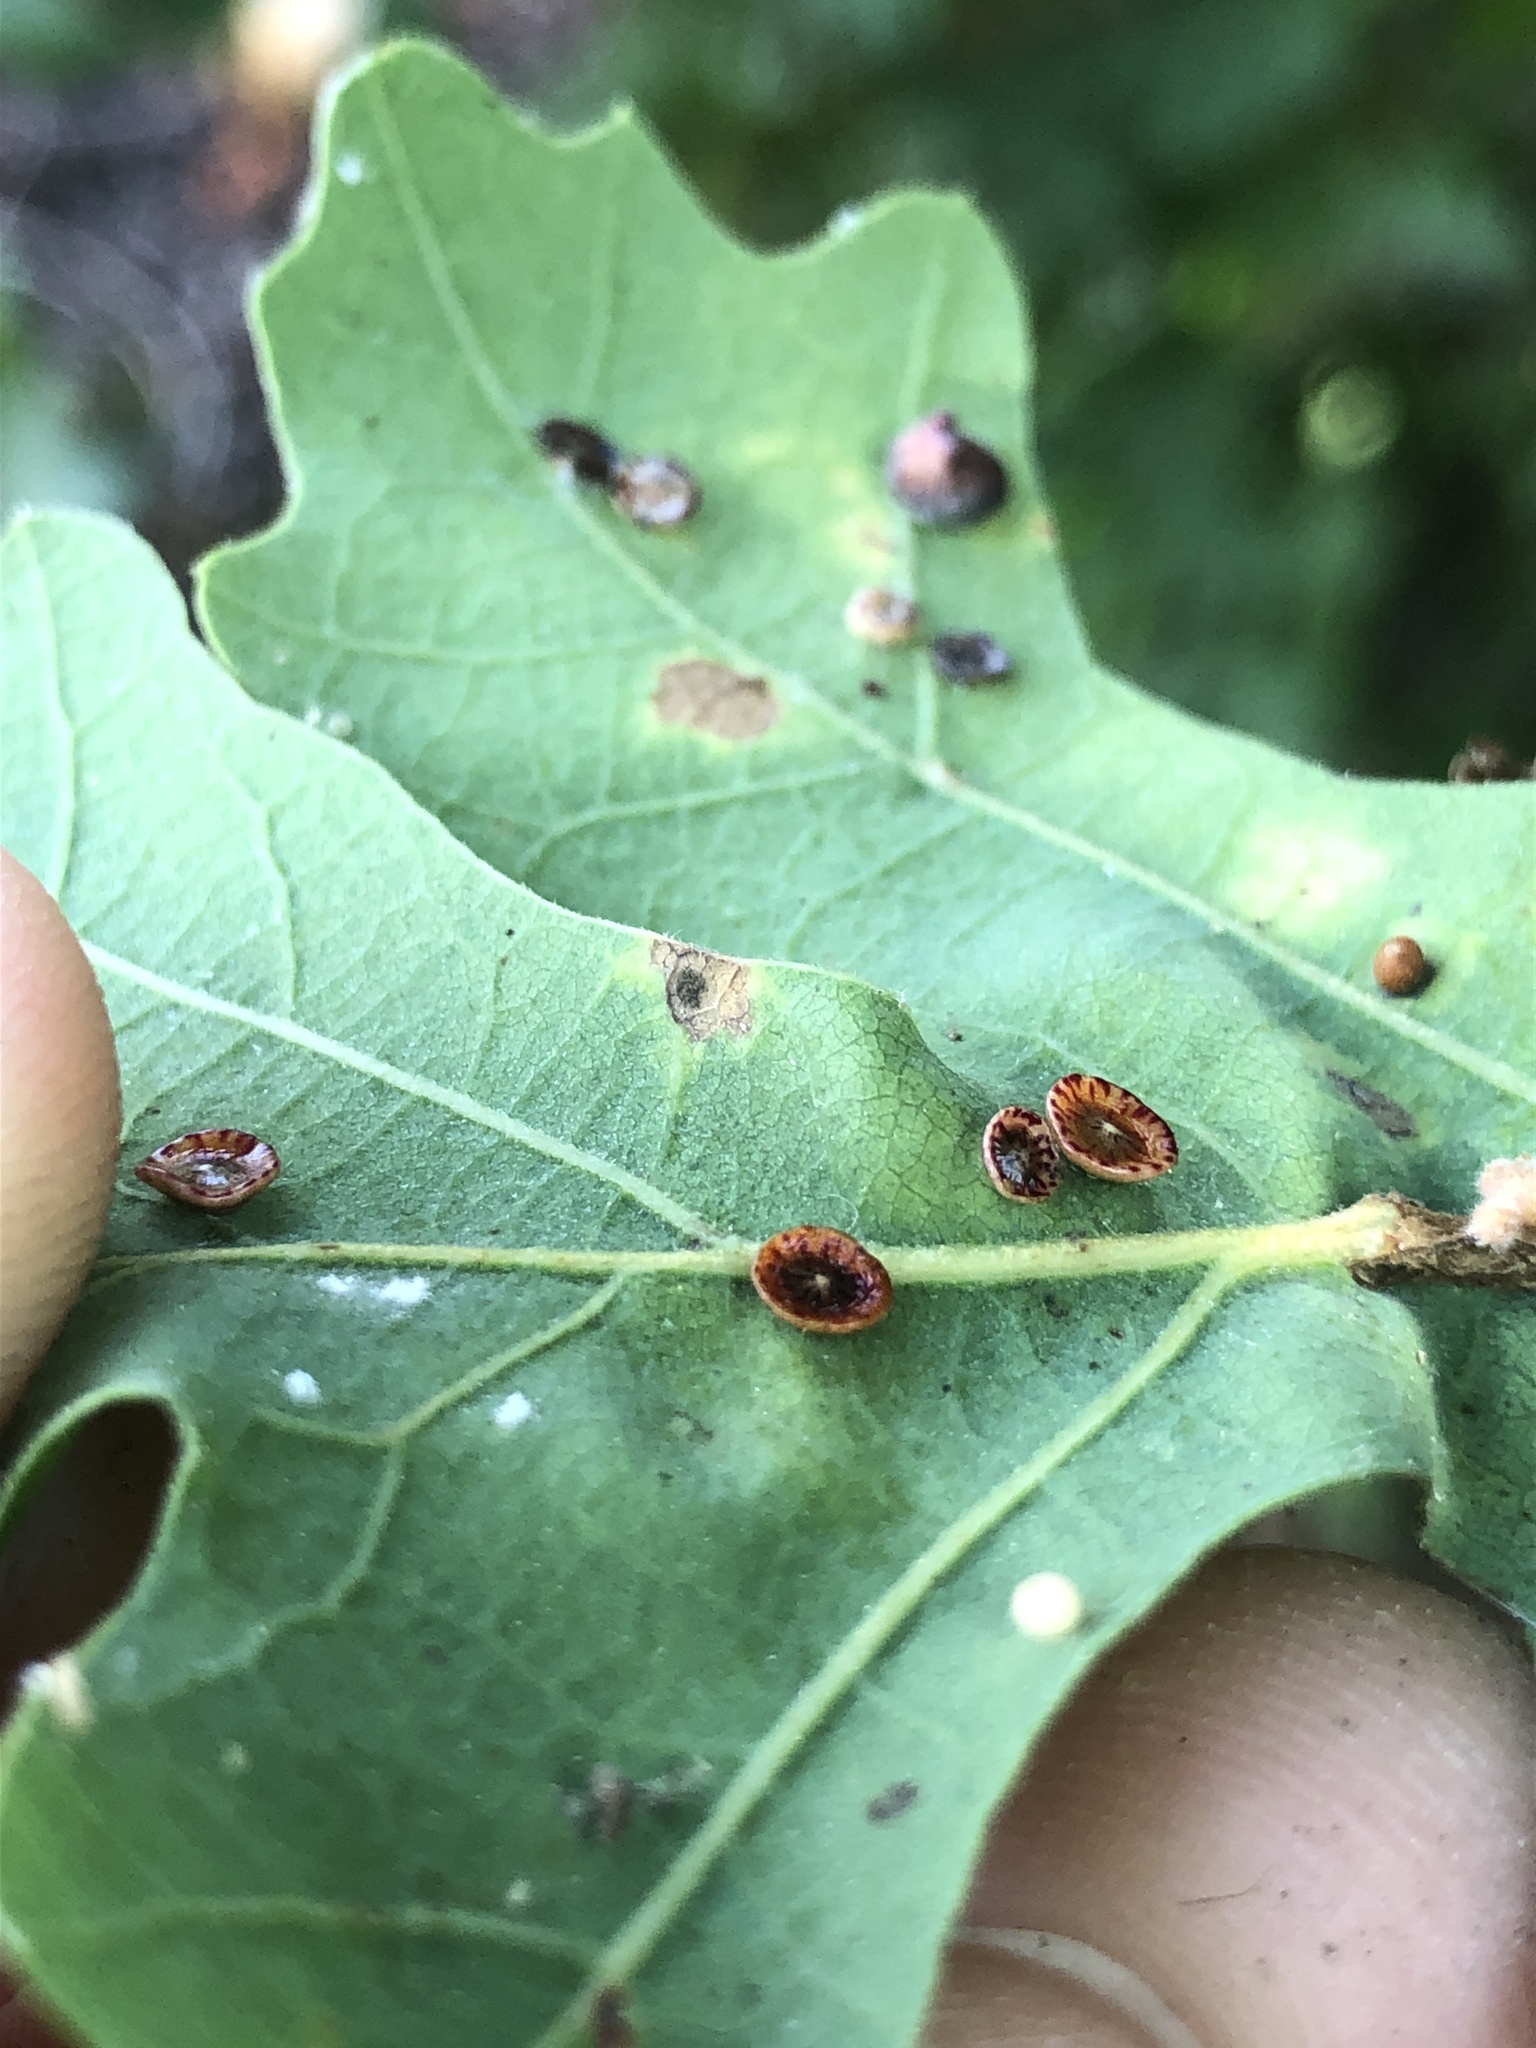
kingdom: Animalia
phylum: Arthropoda
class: Insecta
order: Hymenoptera
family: Cynipidae
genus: Andricus
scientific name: Andricus
